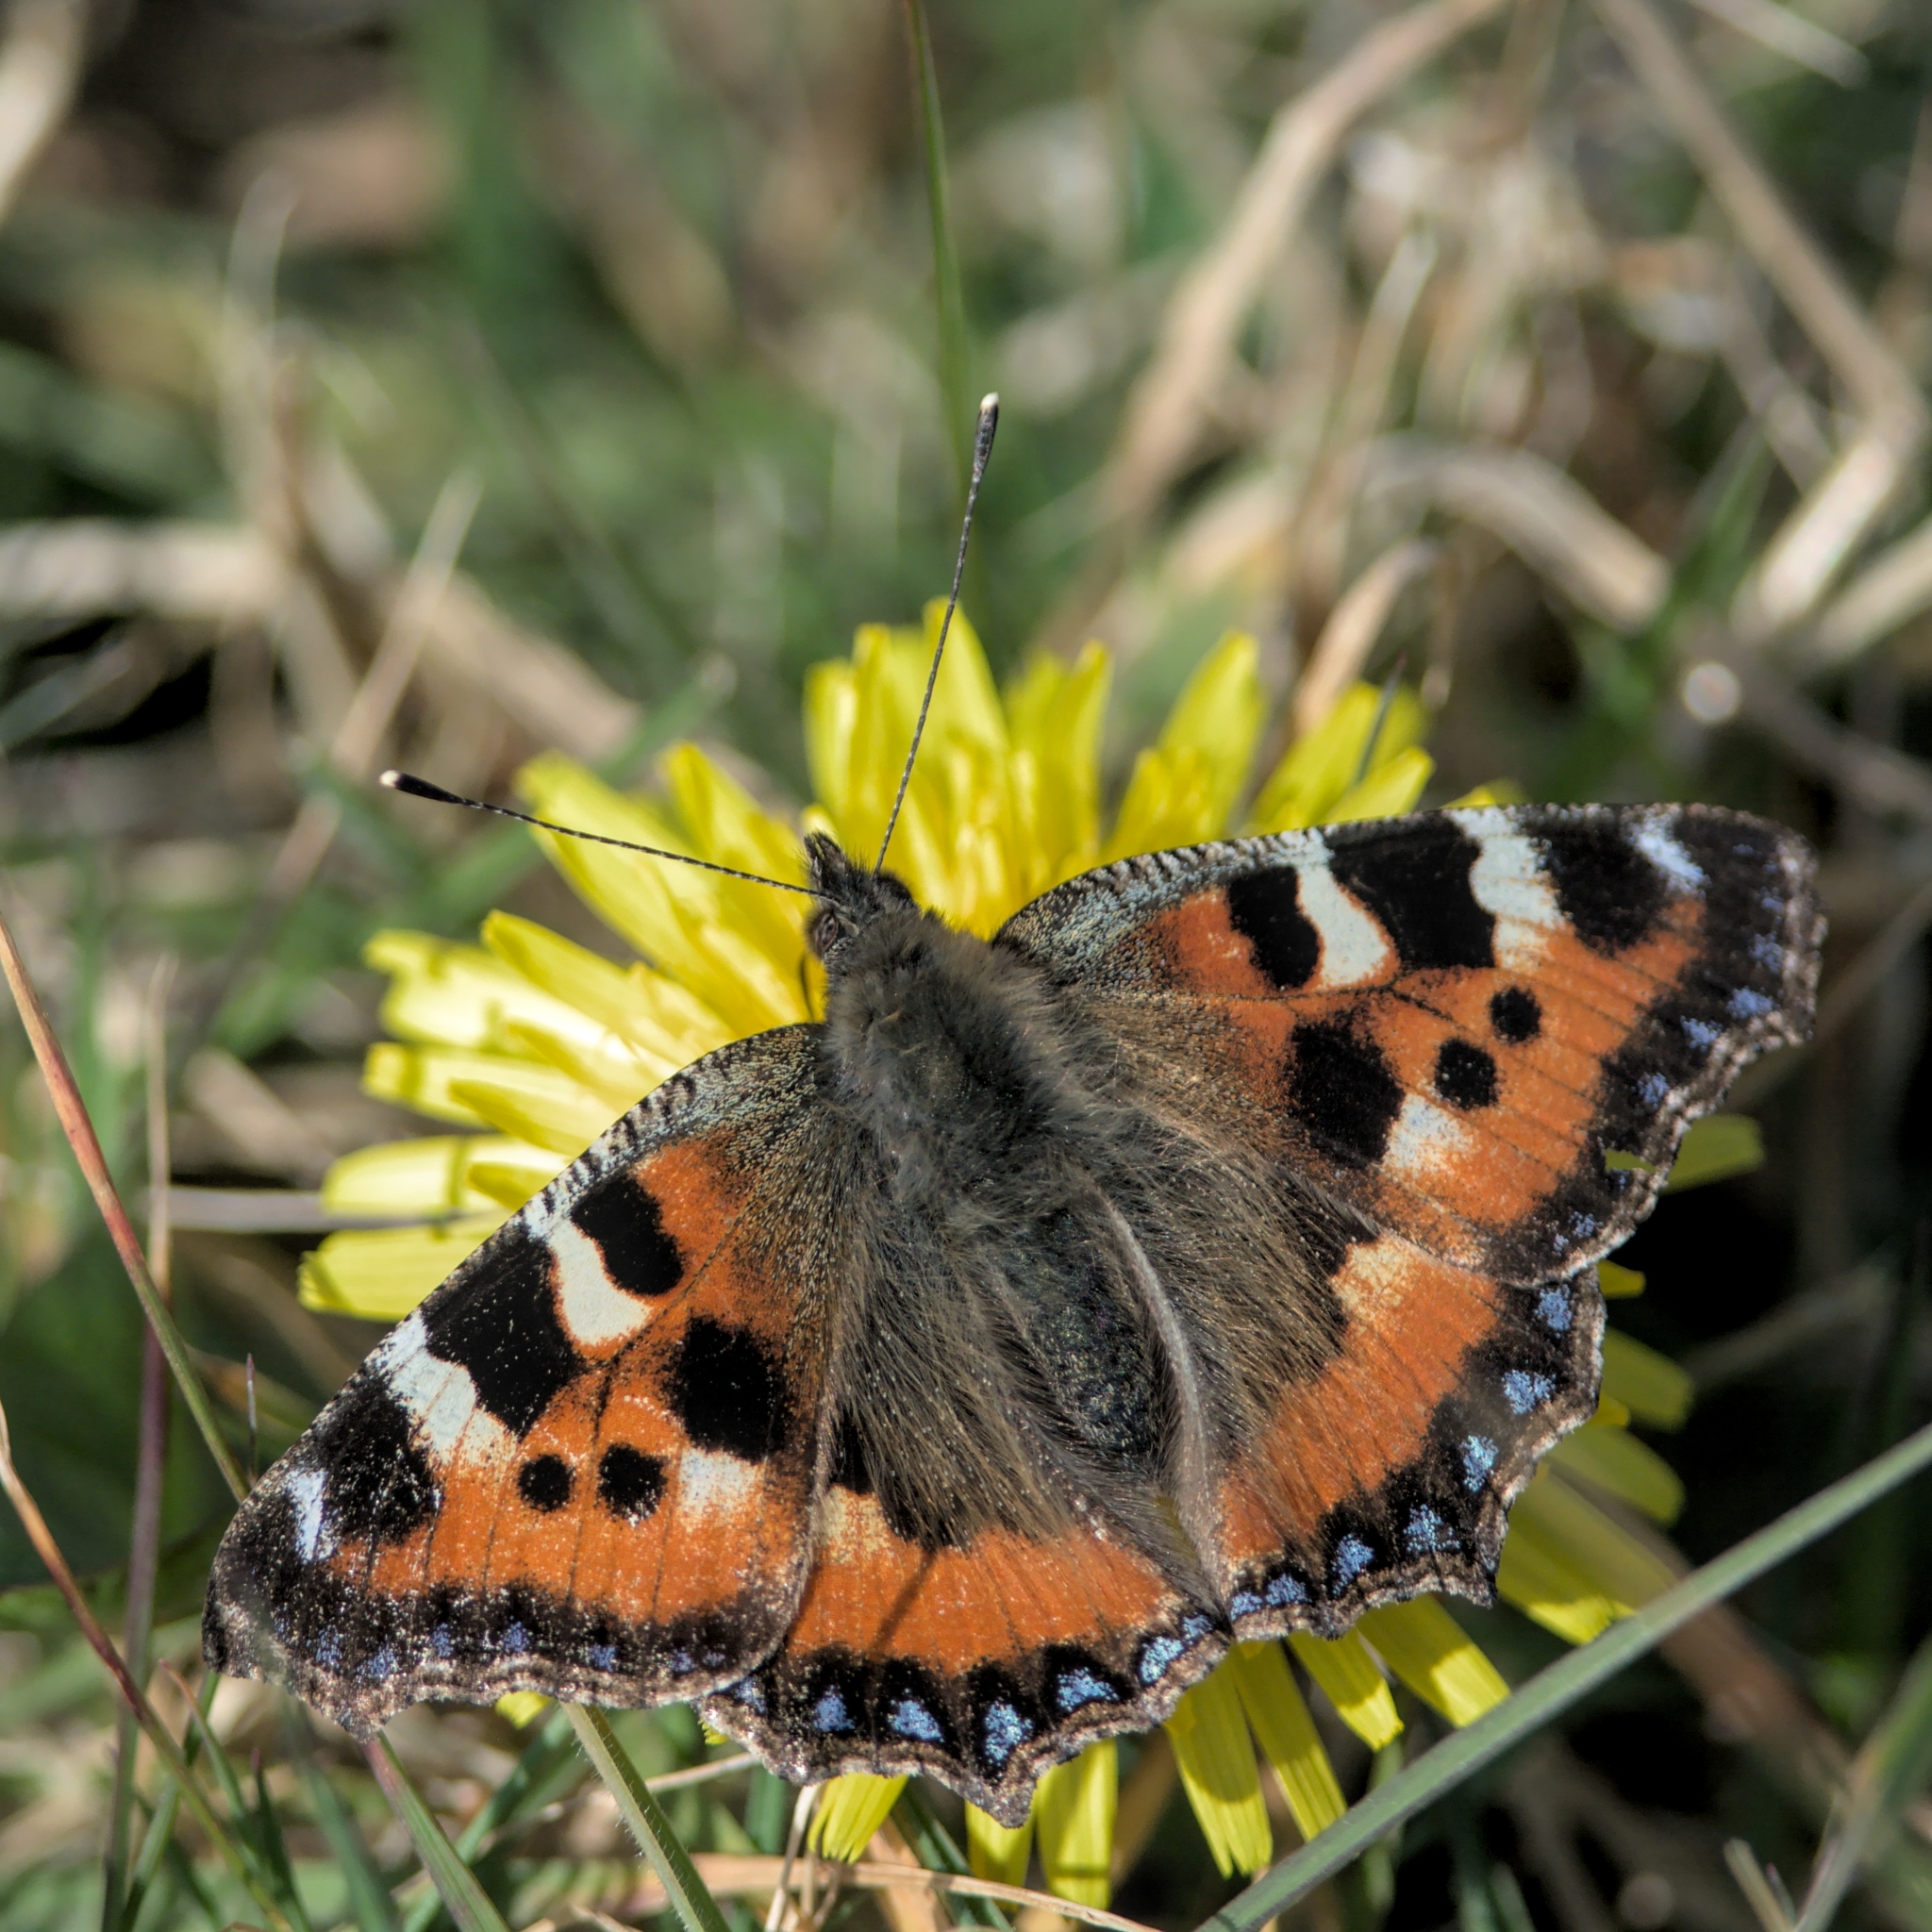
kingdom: Animalia
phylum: Arthropoda
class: Insecta
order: Lepidoptera
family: Nymphalidae
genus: Aglais
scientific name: Aglais urticae
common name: Small tortoiseshell
